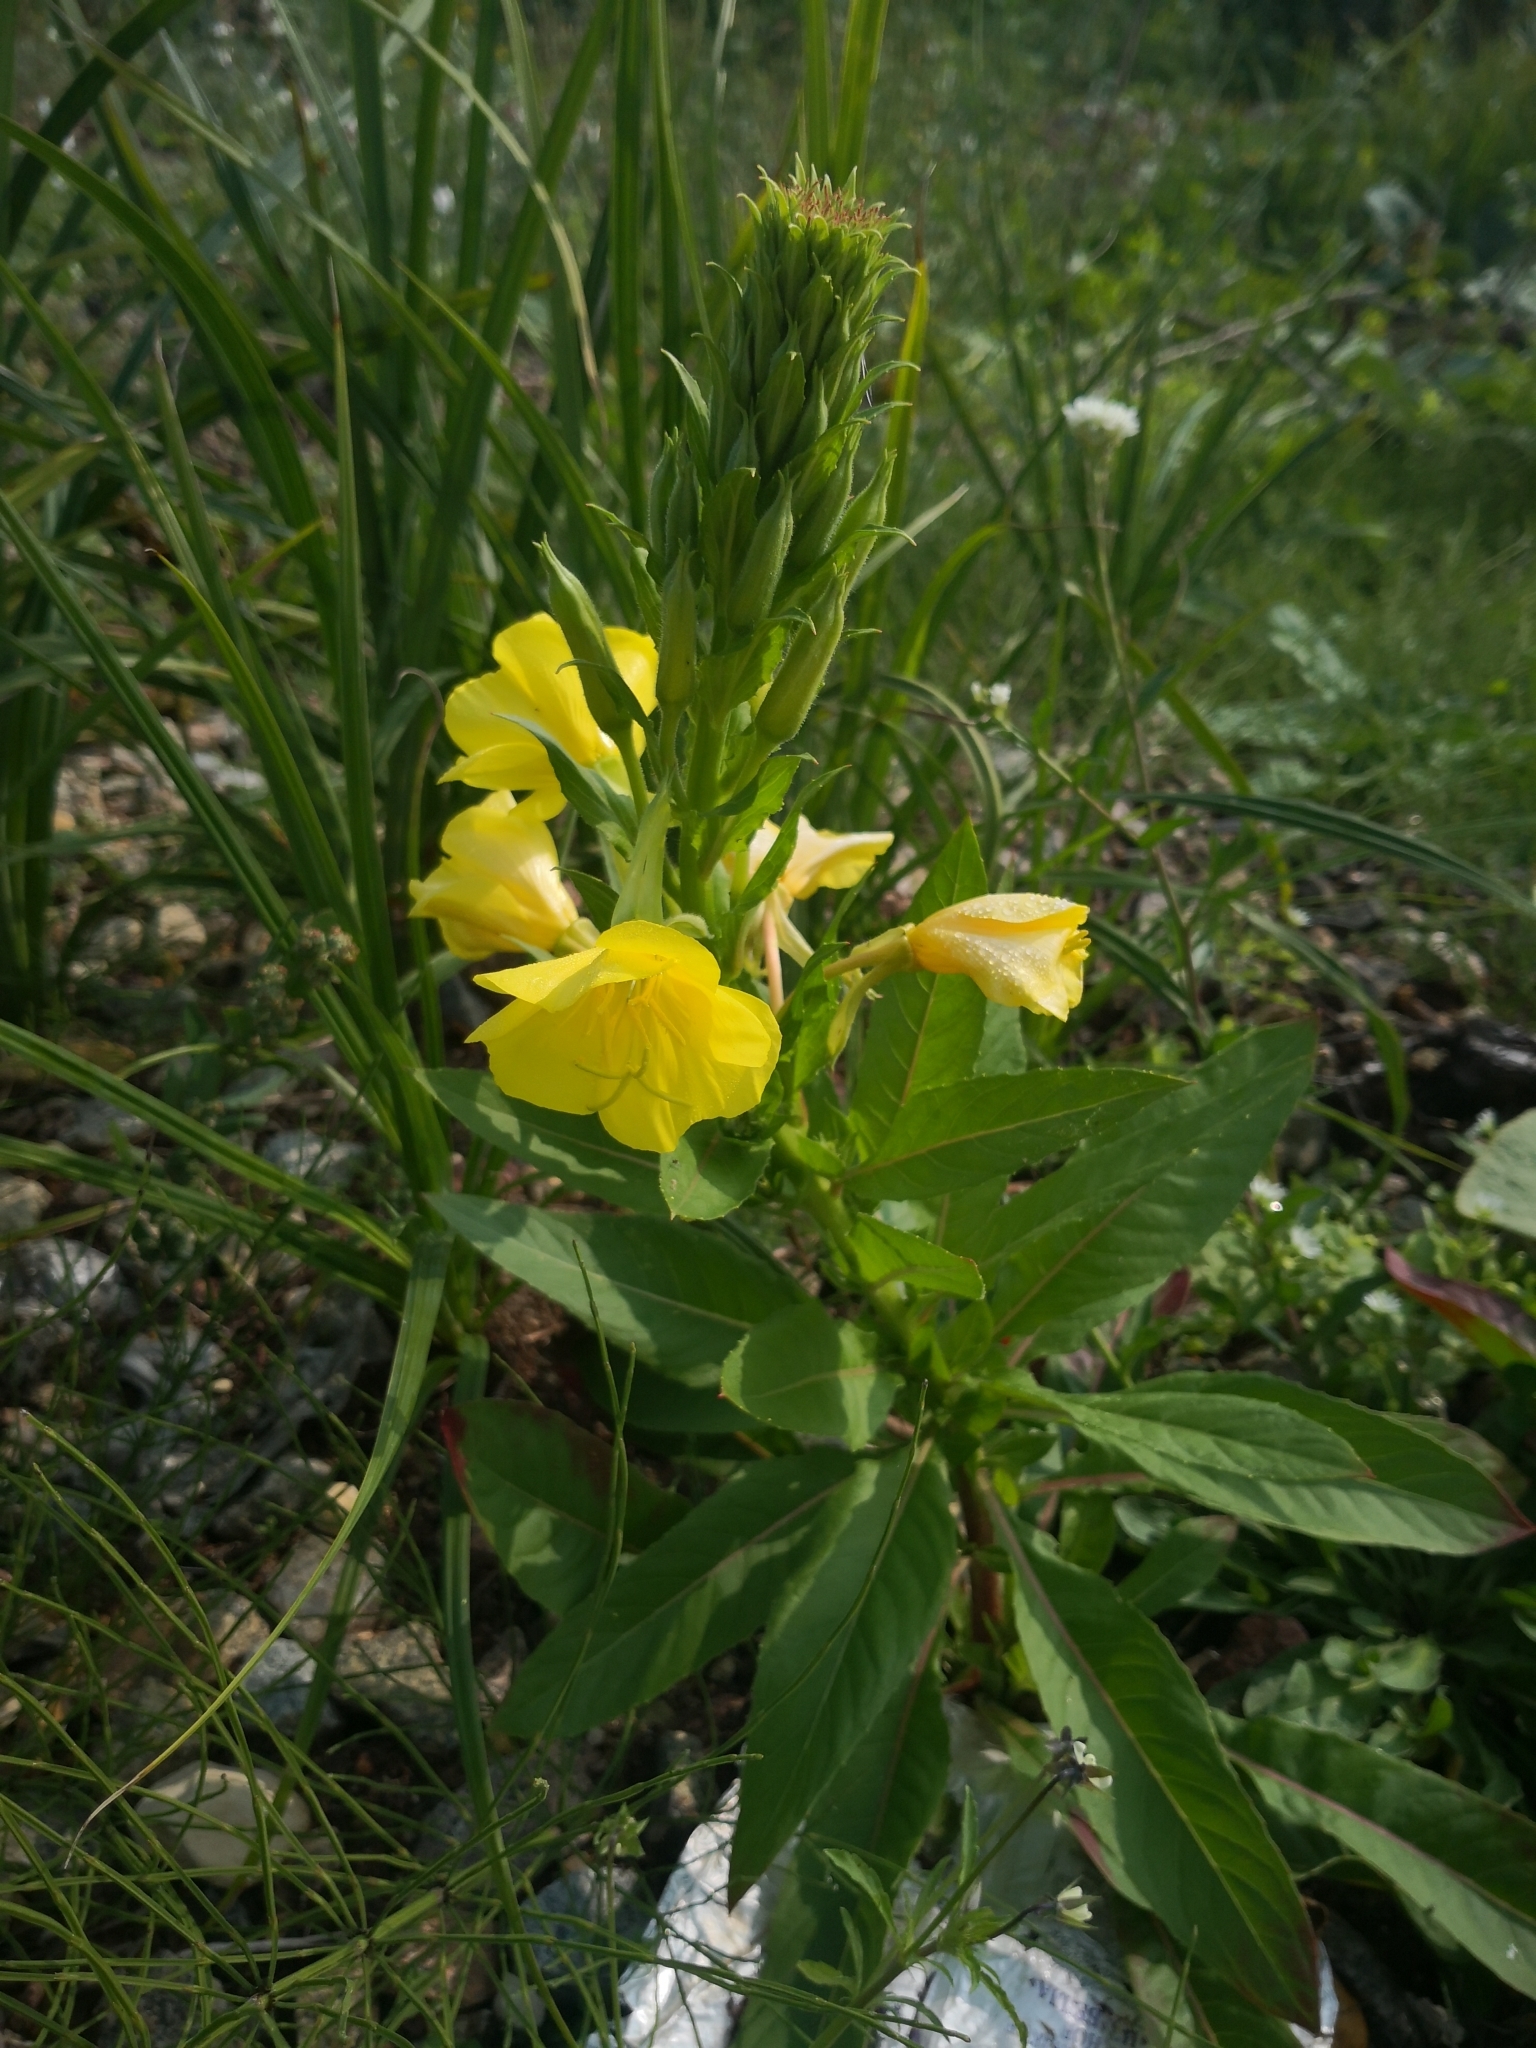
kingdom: Plantae
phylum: Tracheophyta
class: Magnoliopsida
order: Myrtales
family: Onagraceae
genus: Oenothera
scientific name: Oenothera biennis
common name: Common evening-primrose
